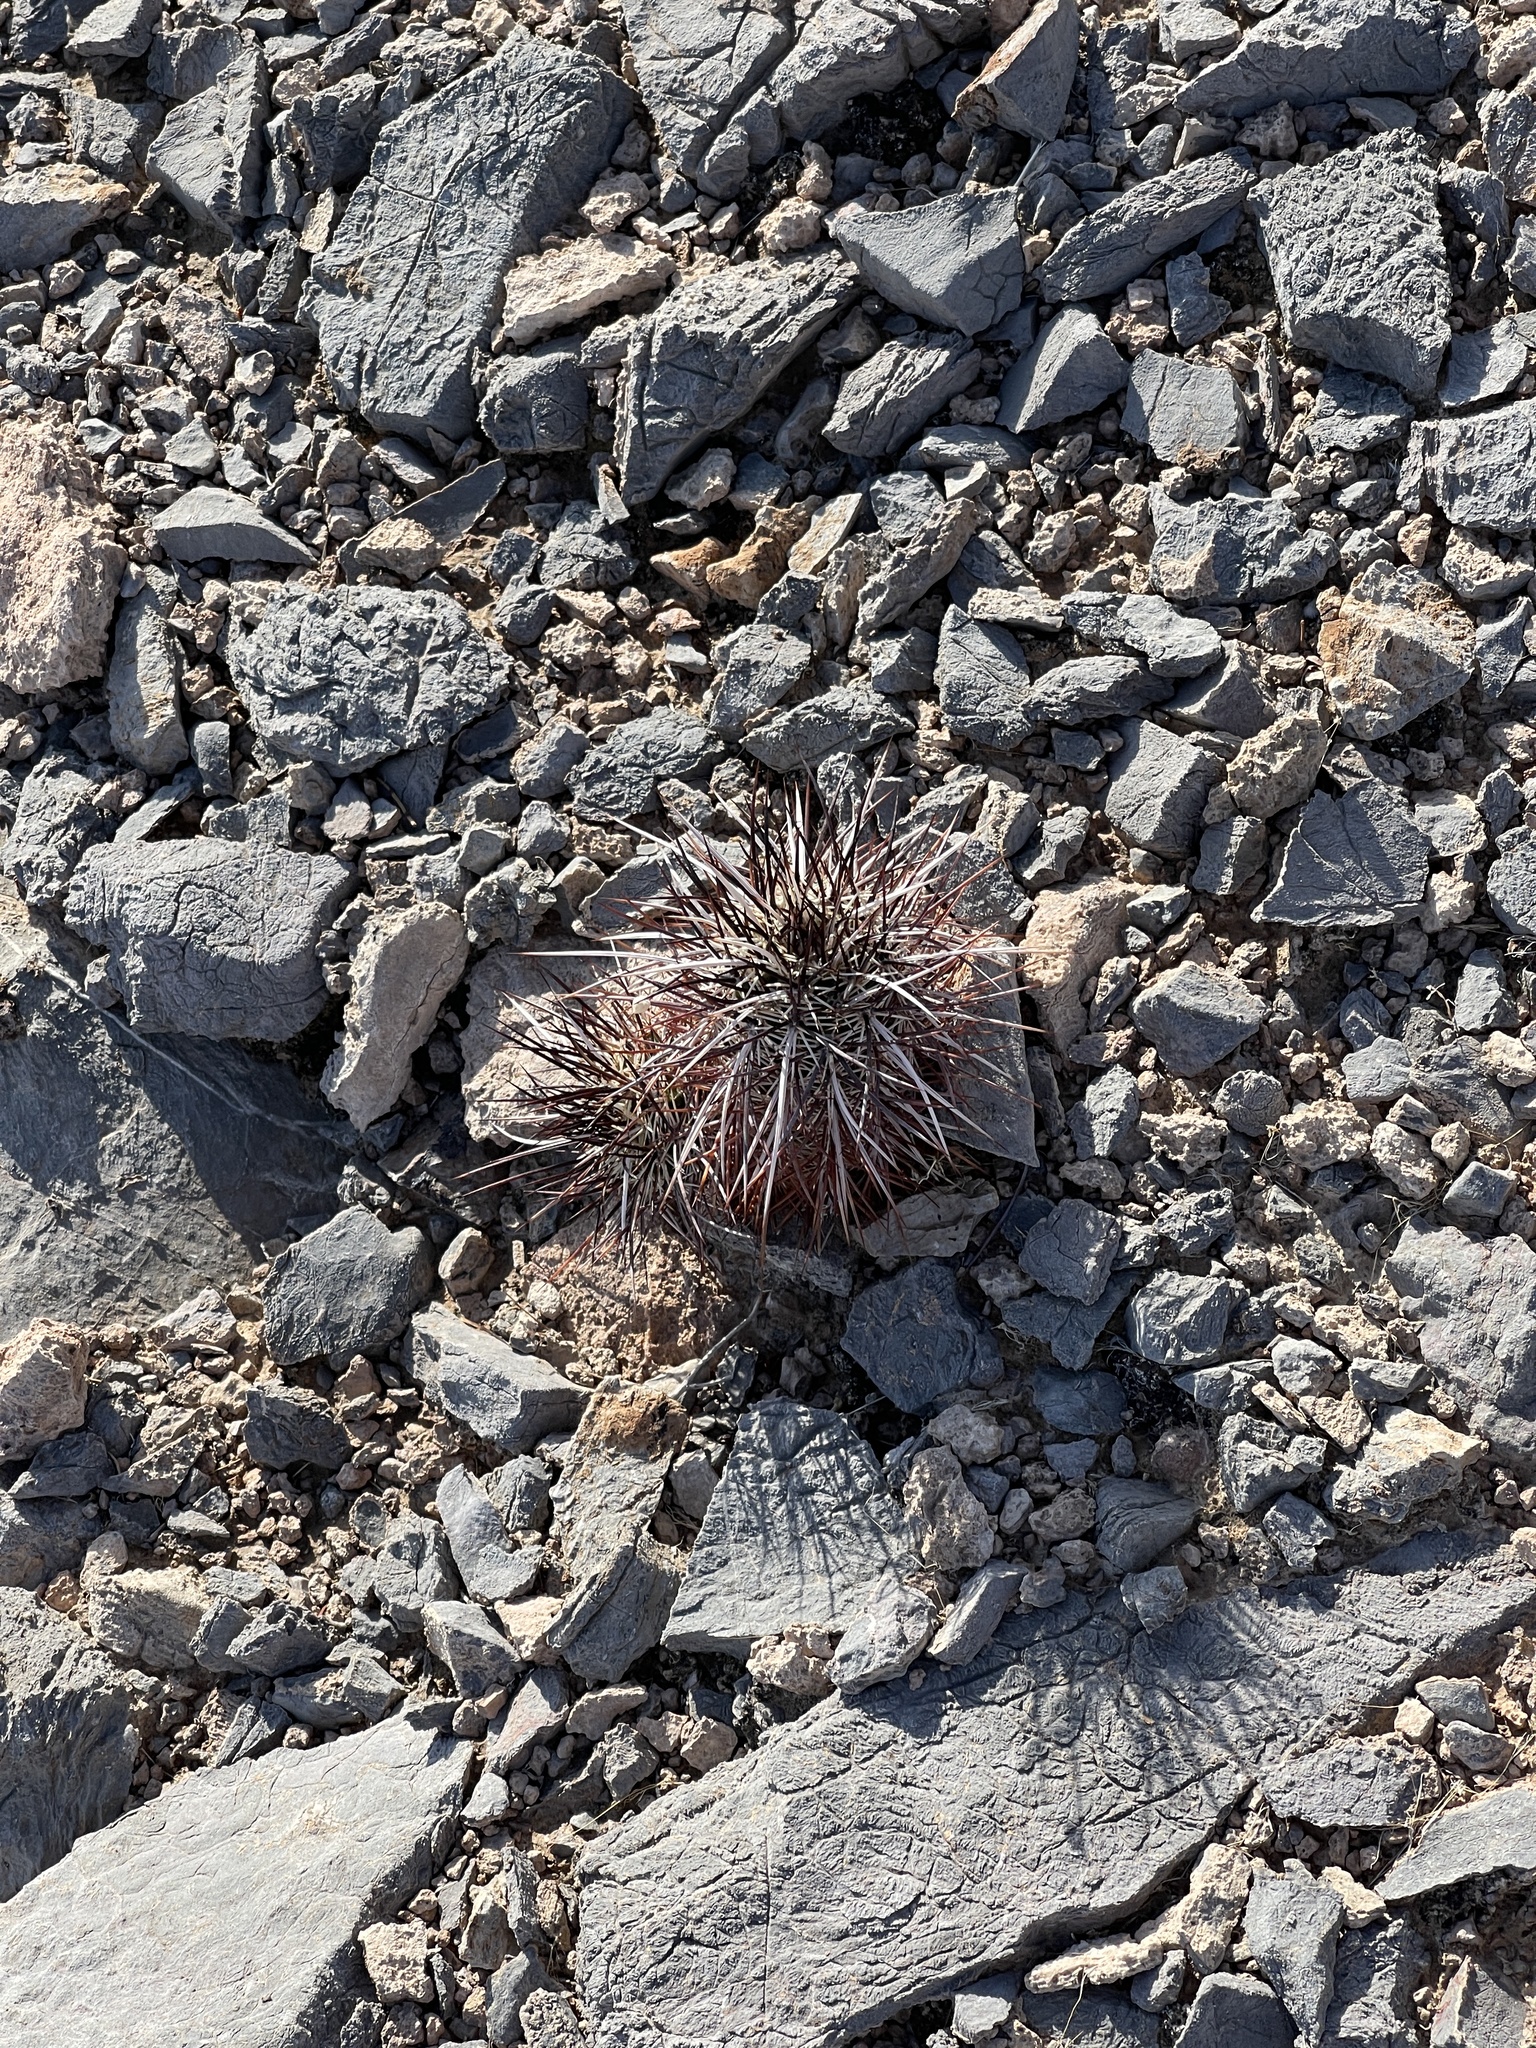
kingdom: Plantae
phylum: Tracheophyta
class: Magnoliopsida
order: Caryophyllales
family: Cactaceae
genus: Echinocereus
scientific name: Echinocereus engelmannii
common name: Engelmann's hedgehog cactus
